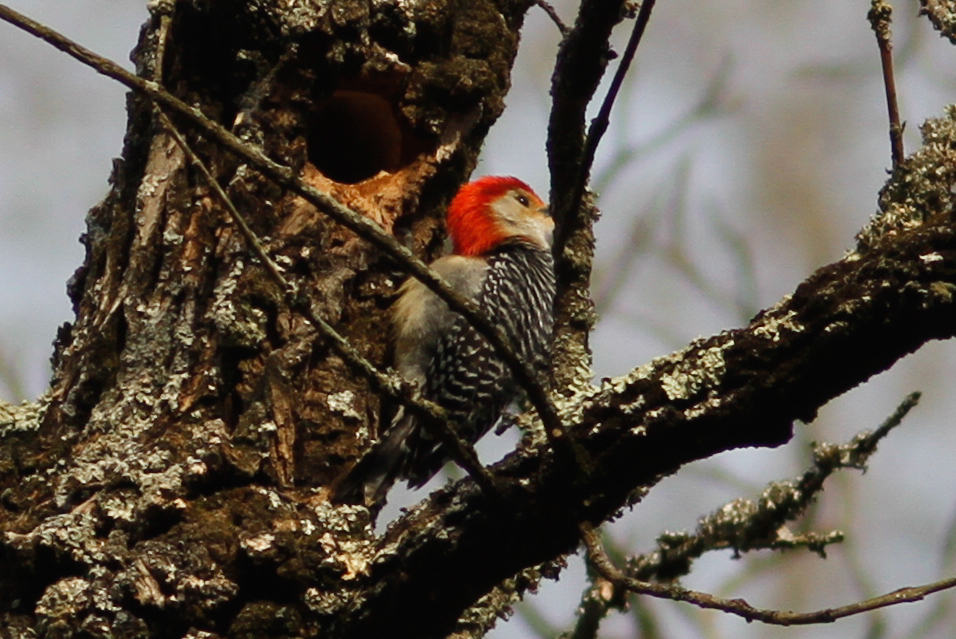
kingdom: Animalia
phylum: Chordata
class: Aves
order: Piciformes
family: Picidae
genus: Melanerpes
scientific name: Melanerpes carolinus
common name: Red-bellied woodpecker
